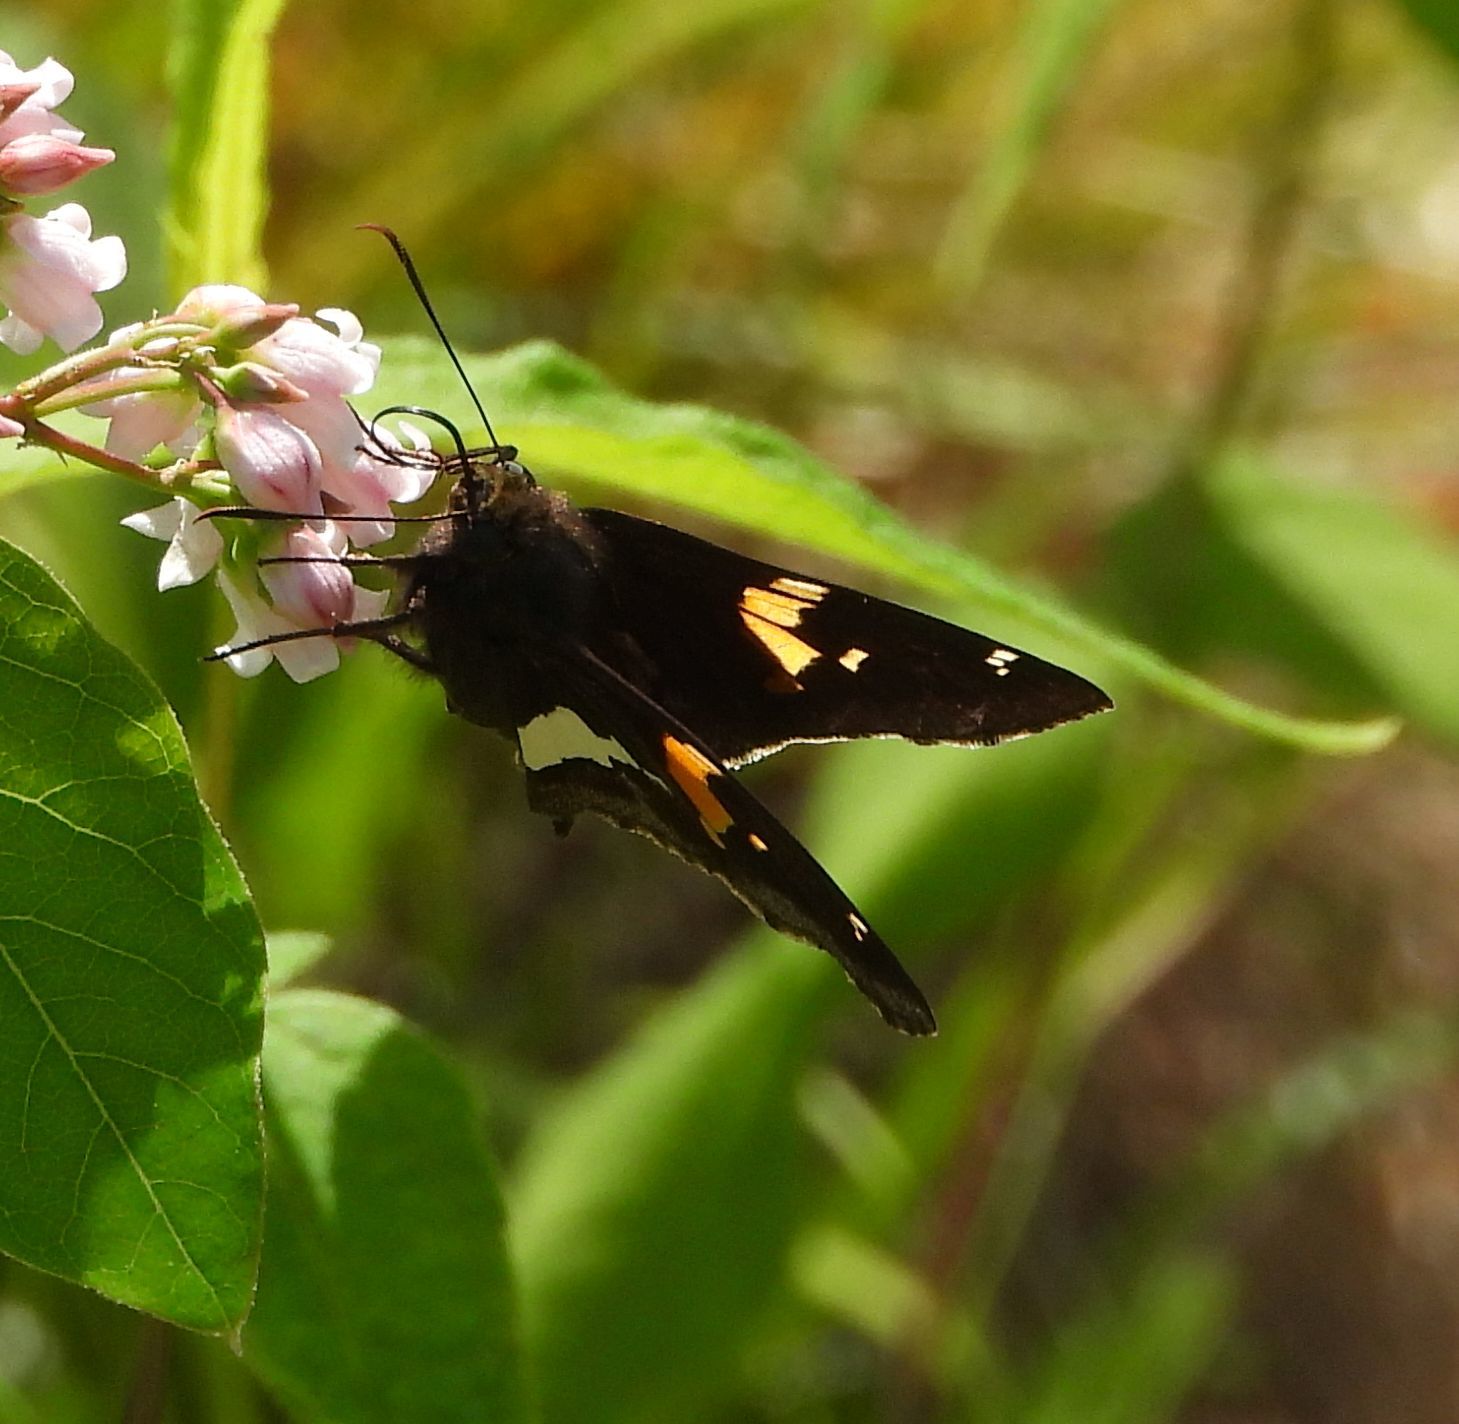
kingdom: Animalia
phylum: Arthropoda
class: Insecta
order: Lepidoptera
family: Hesperiidae
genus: Epargyreus
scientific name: Epargyreus clarus
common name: Silver-spotted skipper
